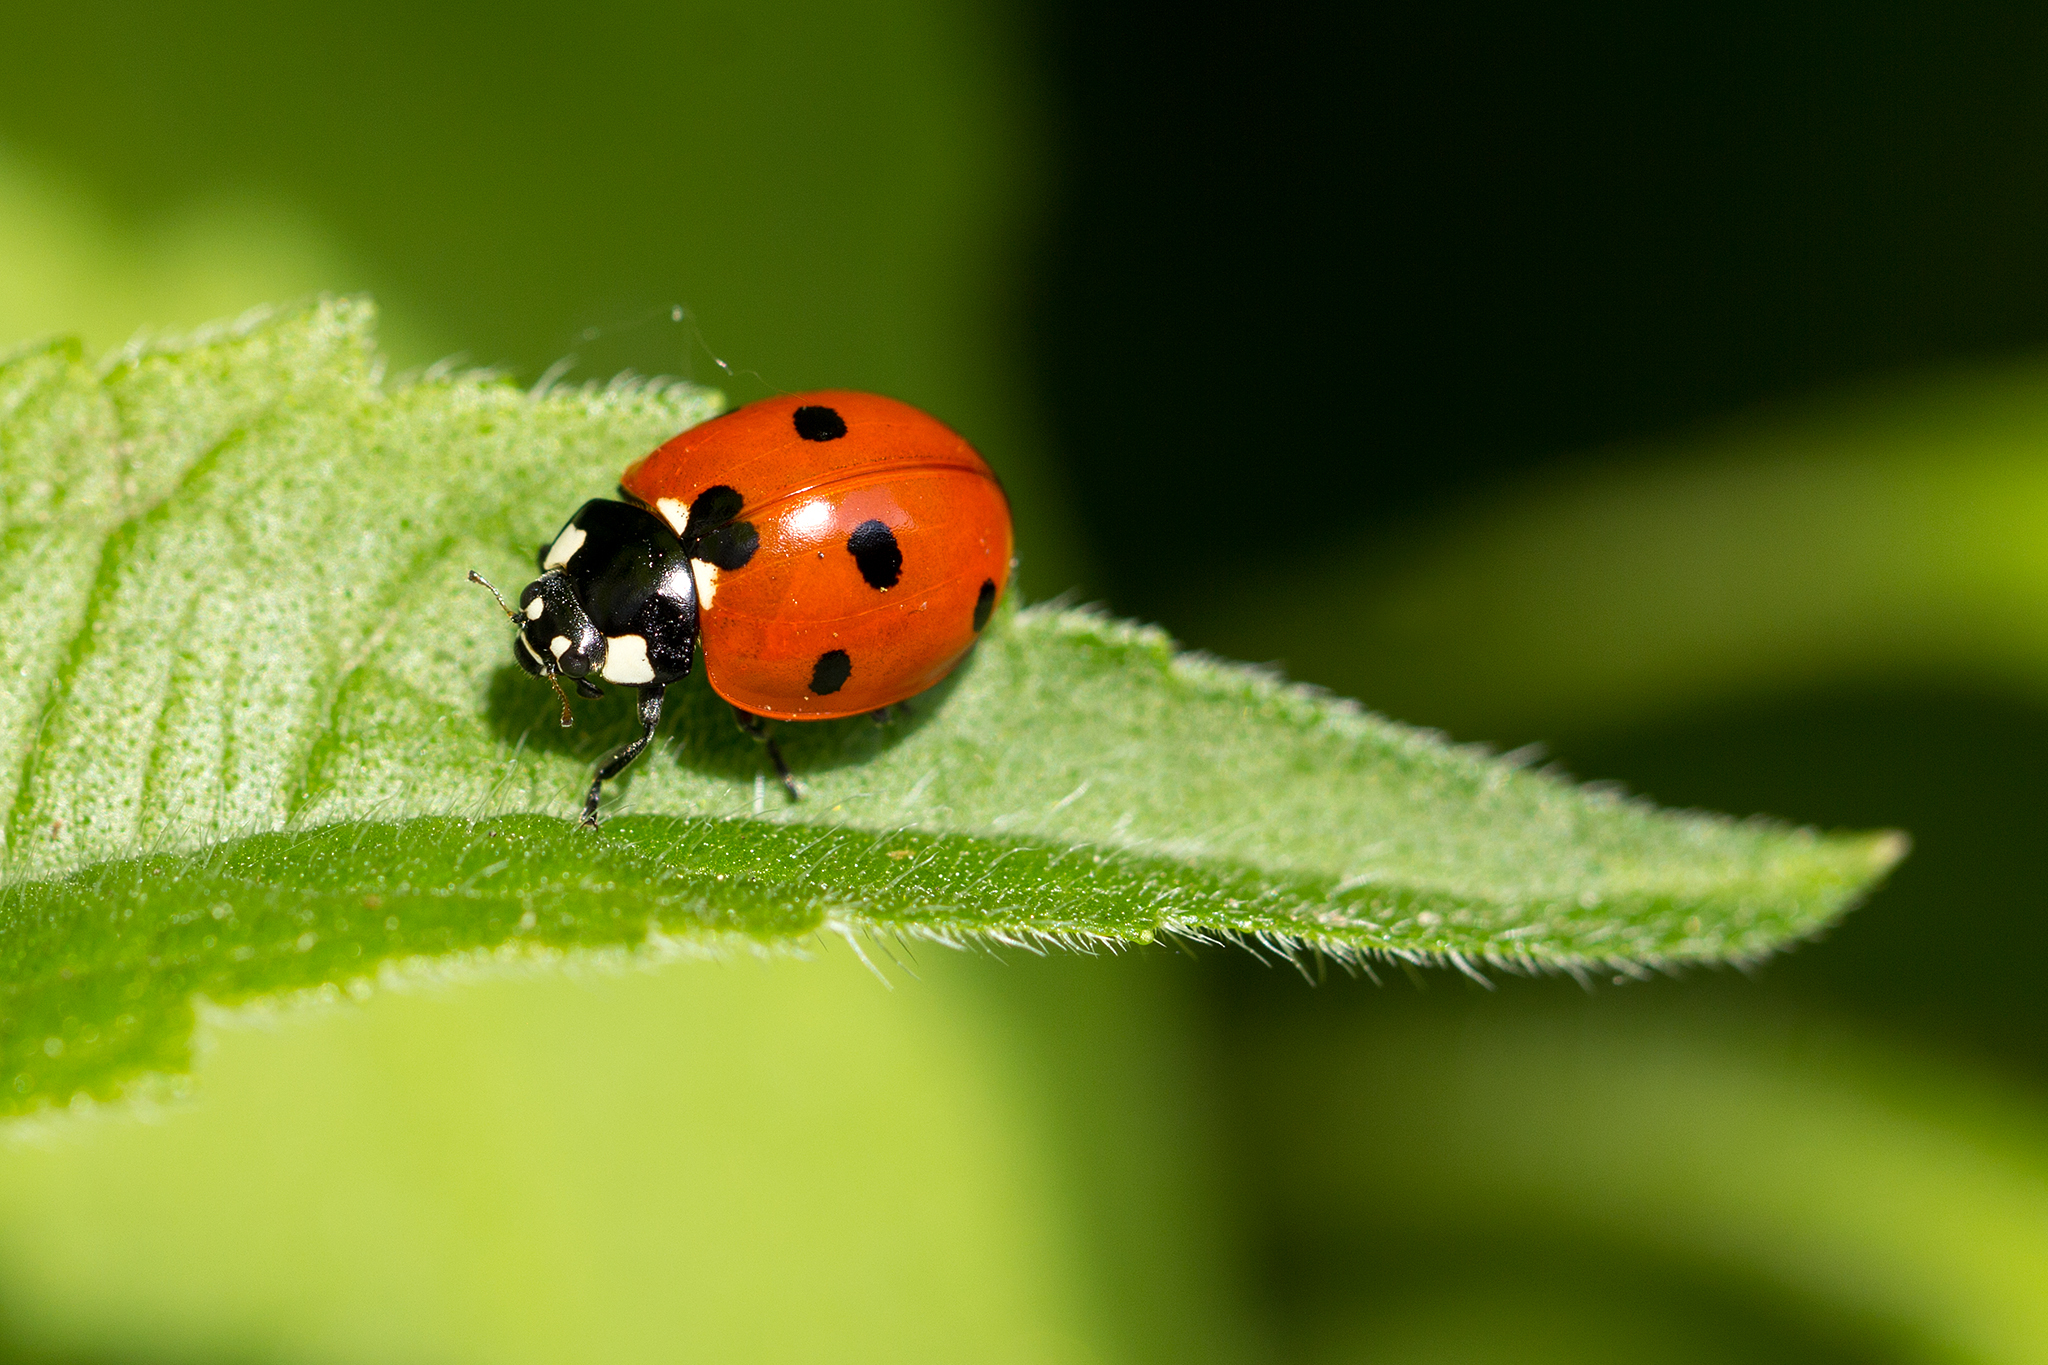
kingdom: Animalia
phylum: Arthropoda
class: Insecta
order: Coleoptera
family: Coccinellidae
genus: Coccinella
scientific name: Coccinella septempunctata
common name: Sevenspotted lady beetle
